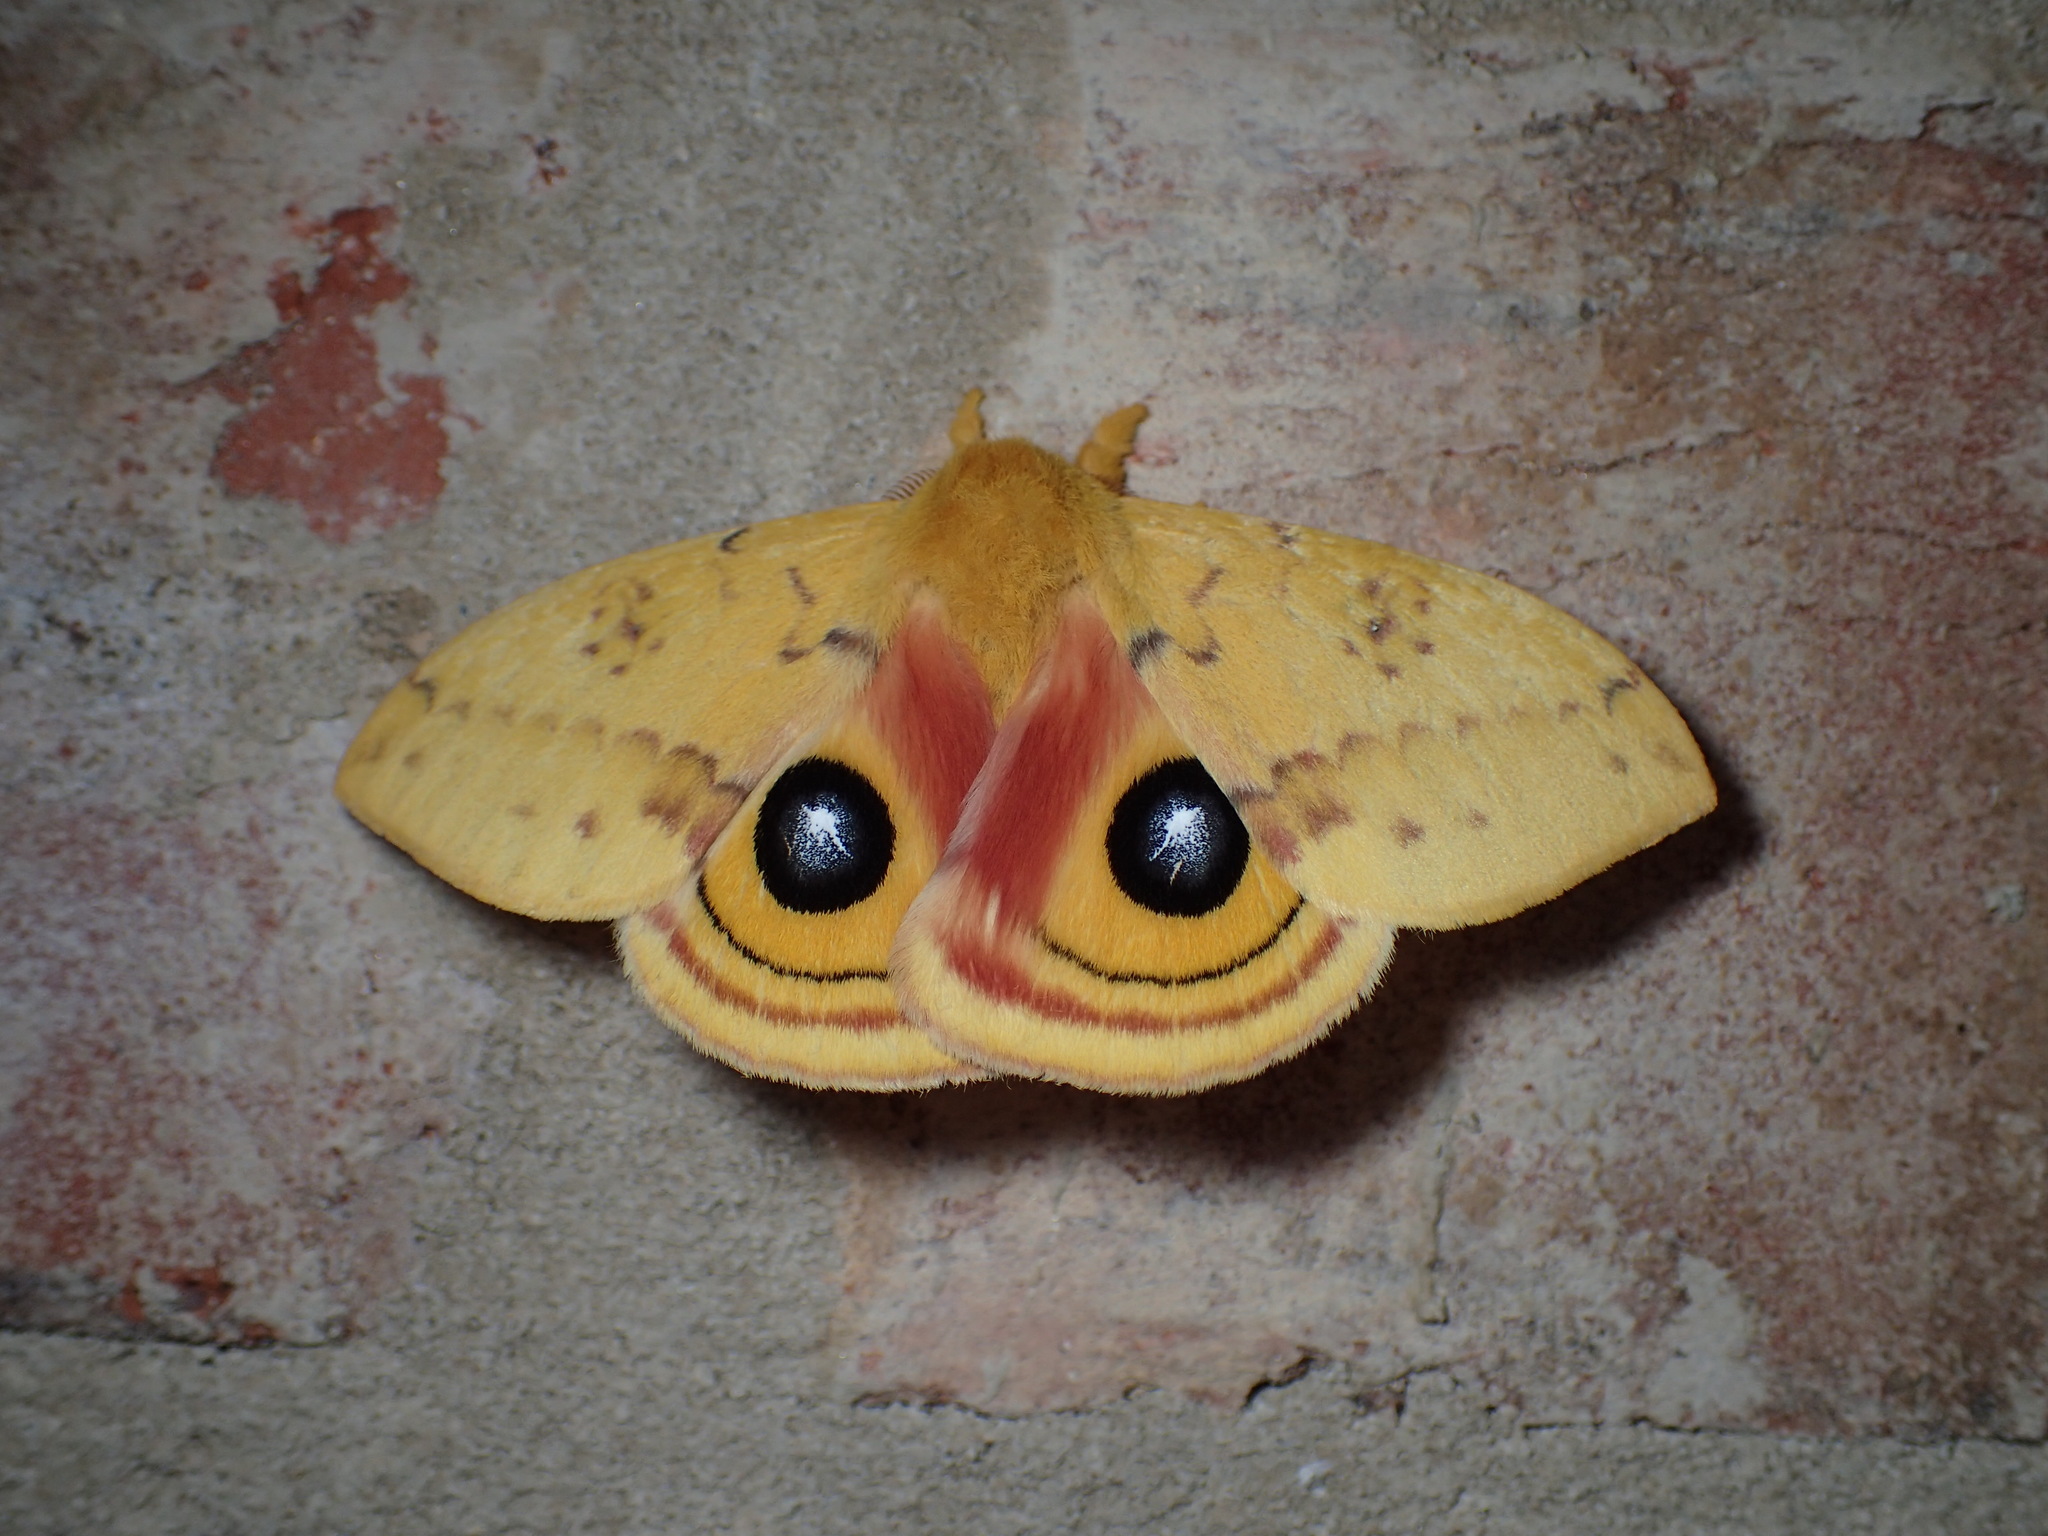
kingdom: Animalia
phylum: Arthropoda
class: Insecta
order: Lepidoptera
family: Saturniidae
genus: Automeris
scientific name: Automeris io
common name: Io moth
